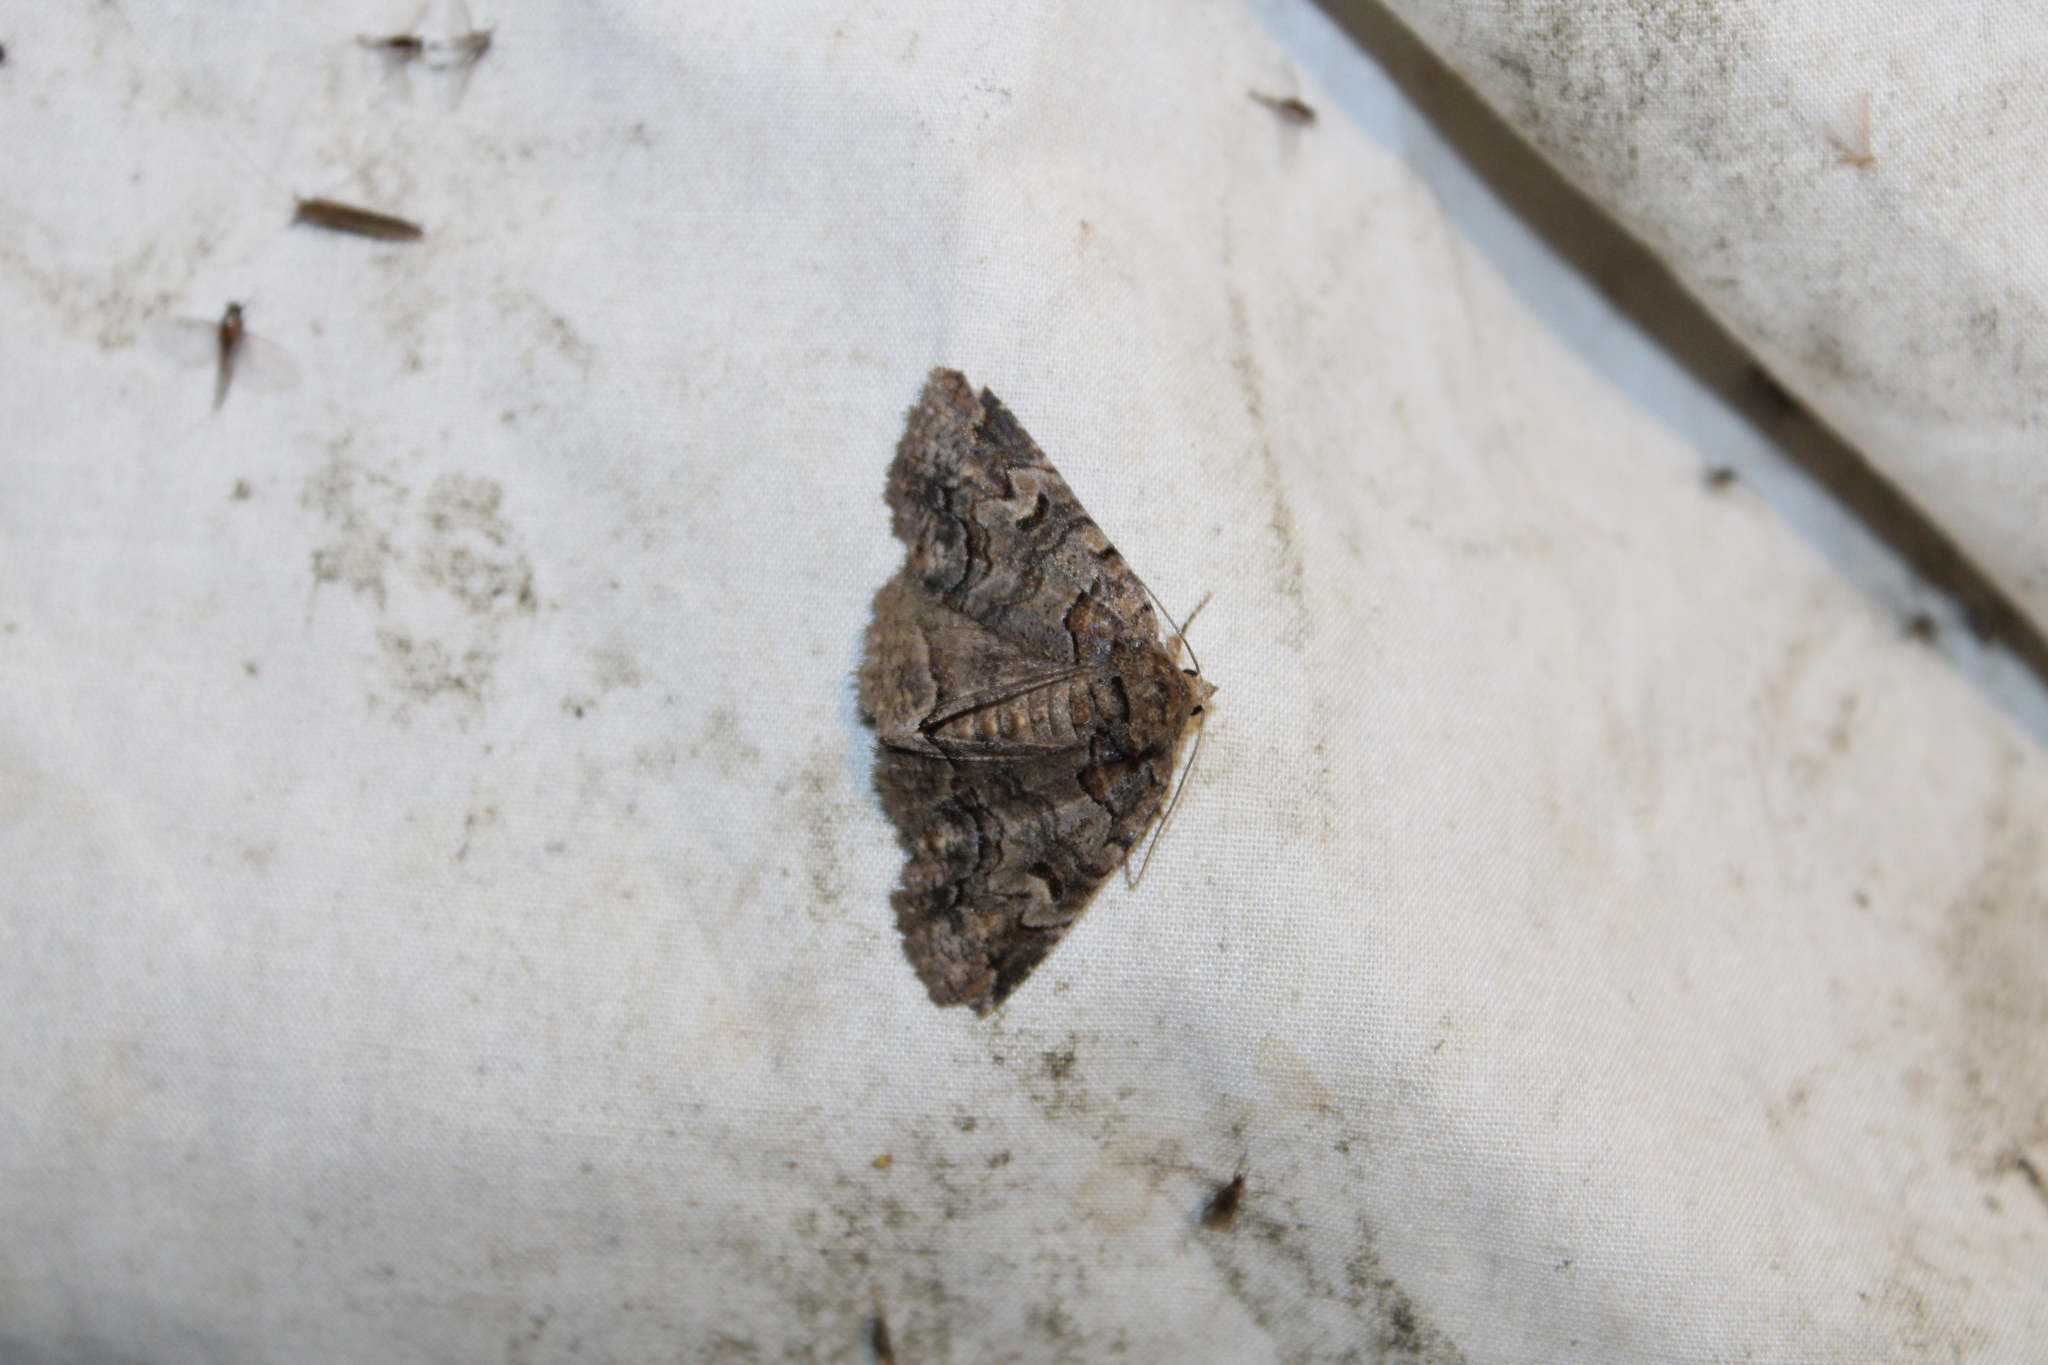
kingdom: Animalia
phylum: Arthropoda
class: Insecta
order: Lepidoptera
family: Erebidae
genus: Zale
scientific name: Zale helata
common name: Brown-spotted zale moth
